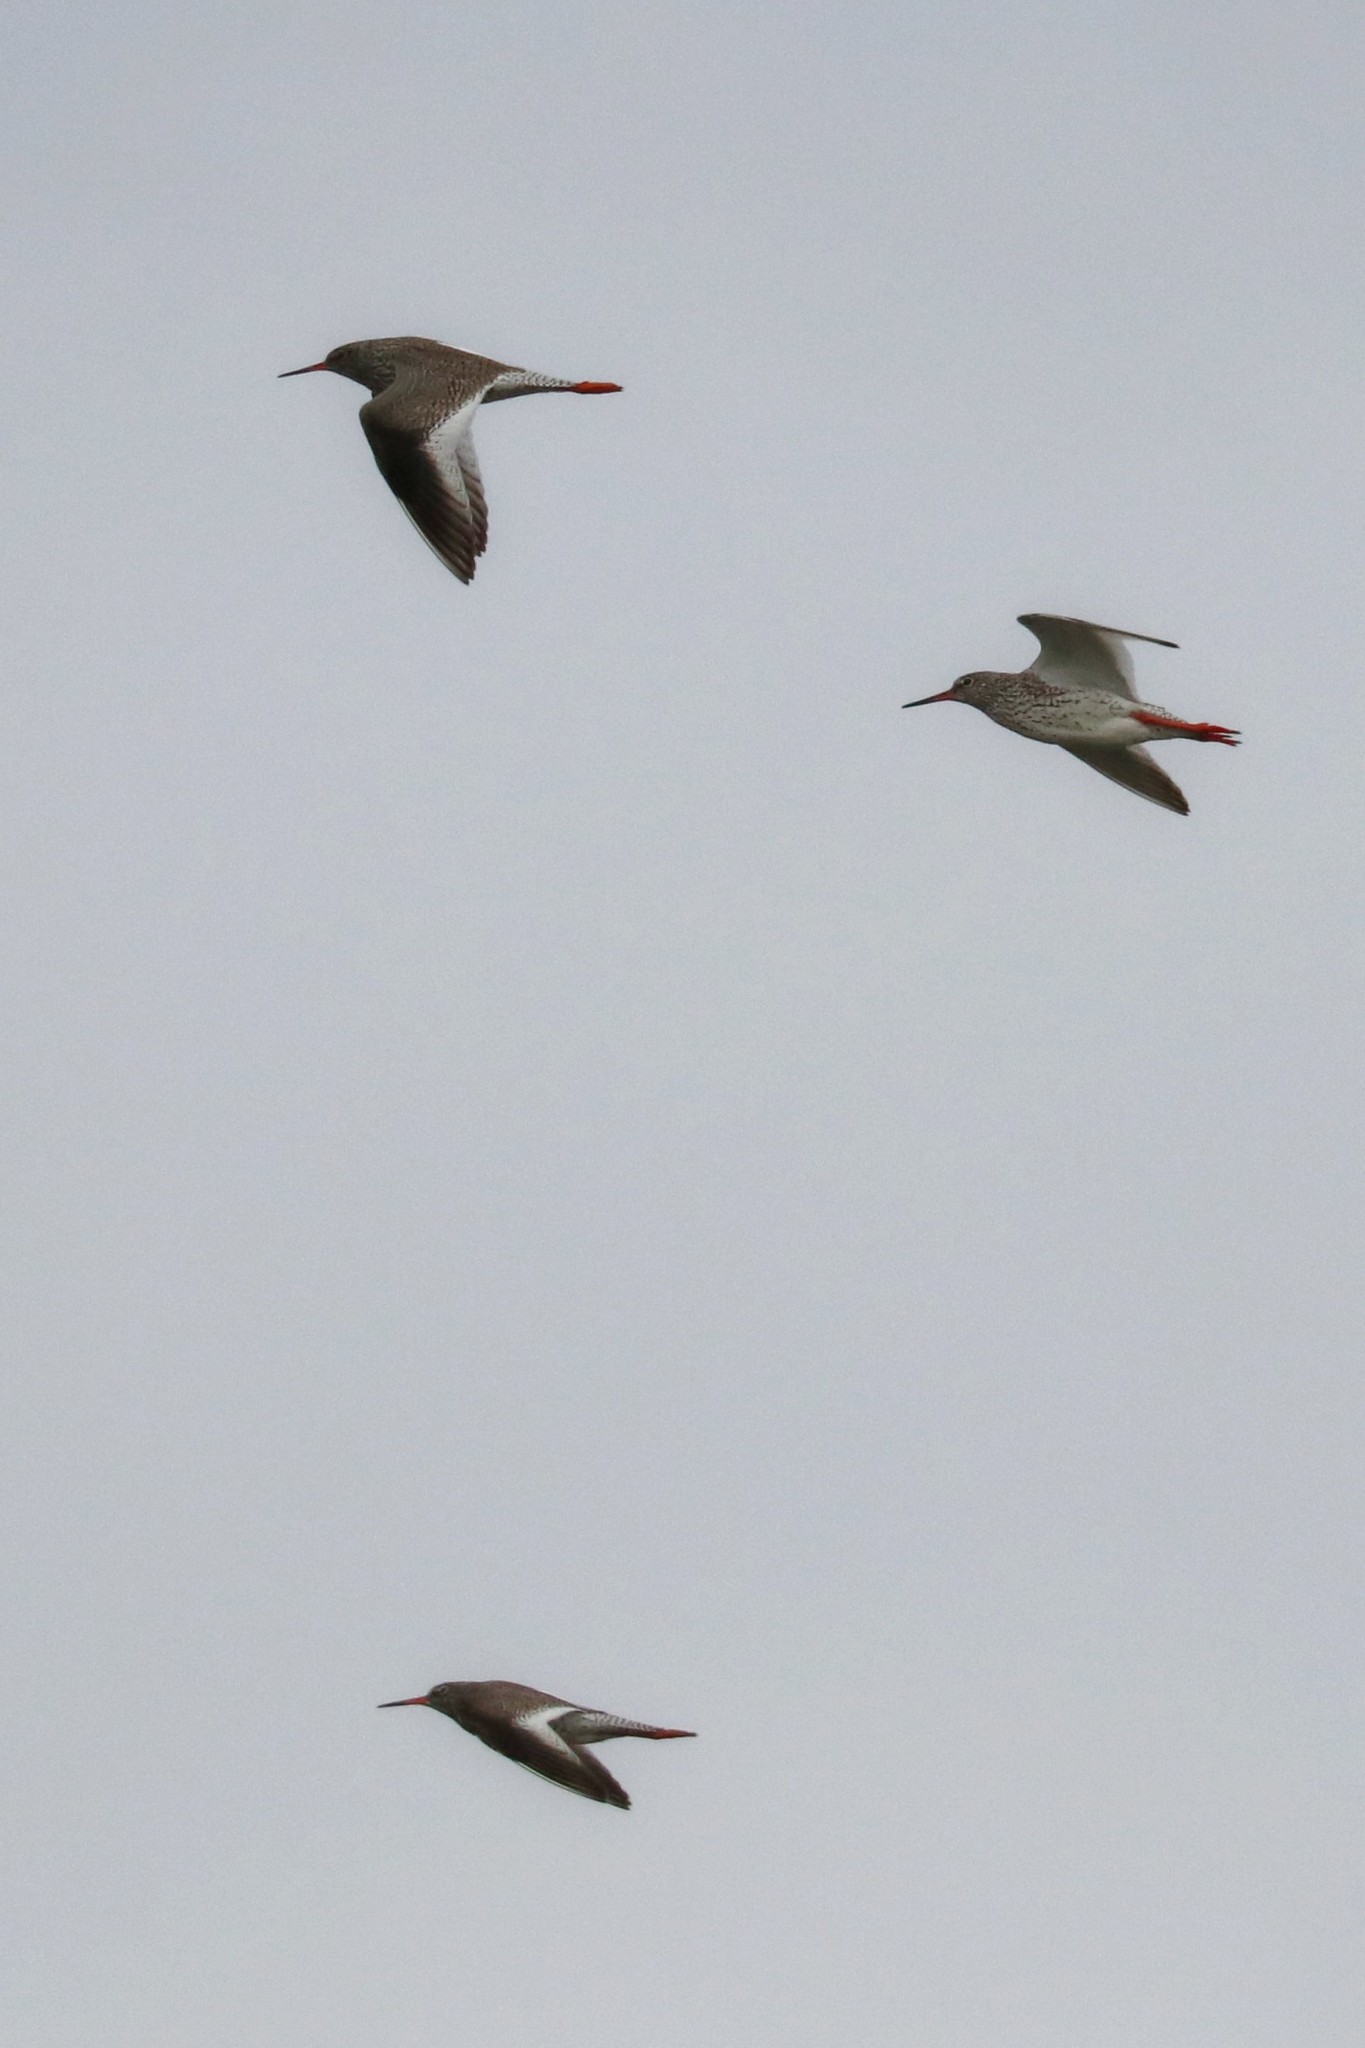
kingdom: Animalia
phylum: Chordata
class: Aves
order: Charadriiformes
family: Scolopacidae
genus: Tringa
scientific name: Tringa totanus
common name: Common redshank
